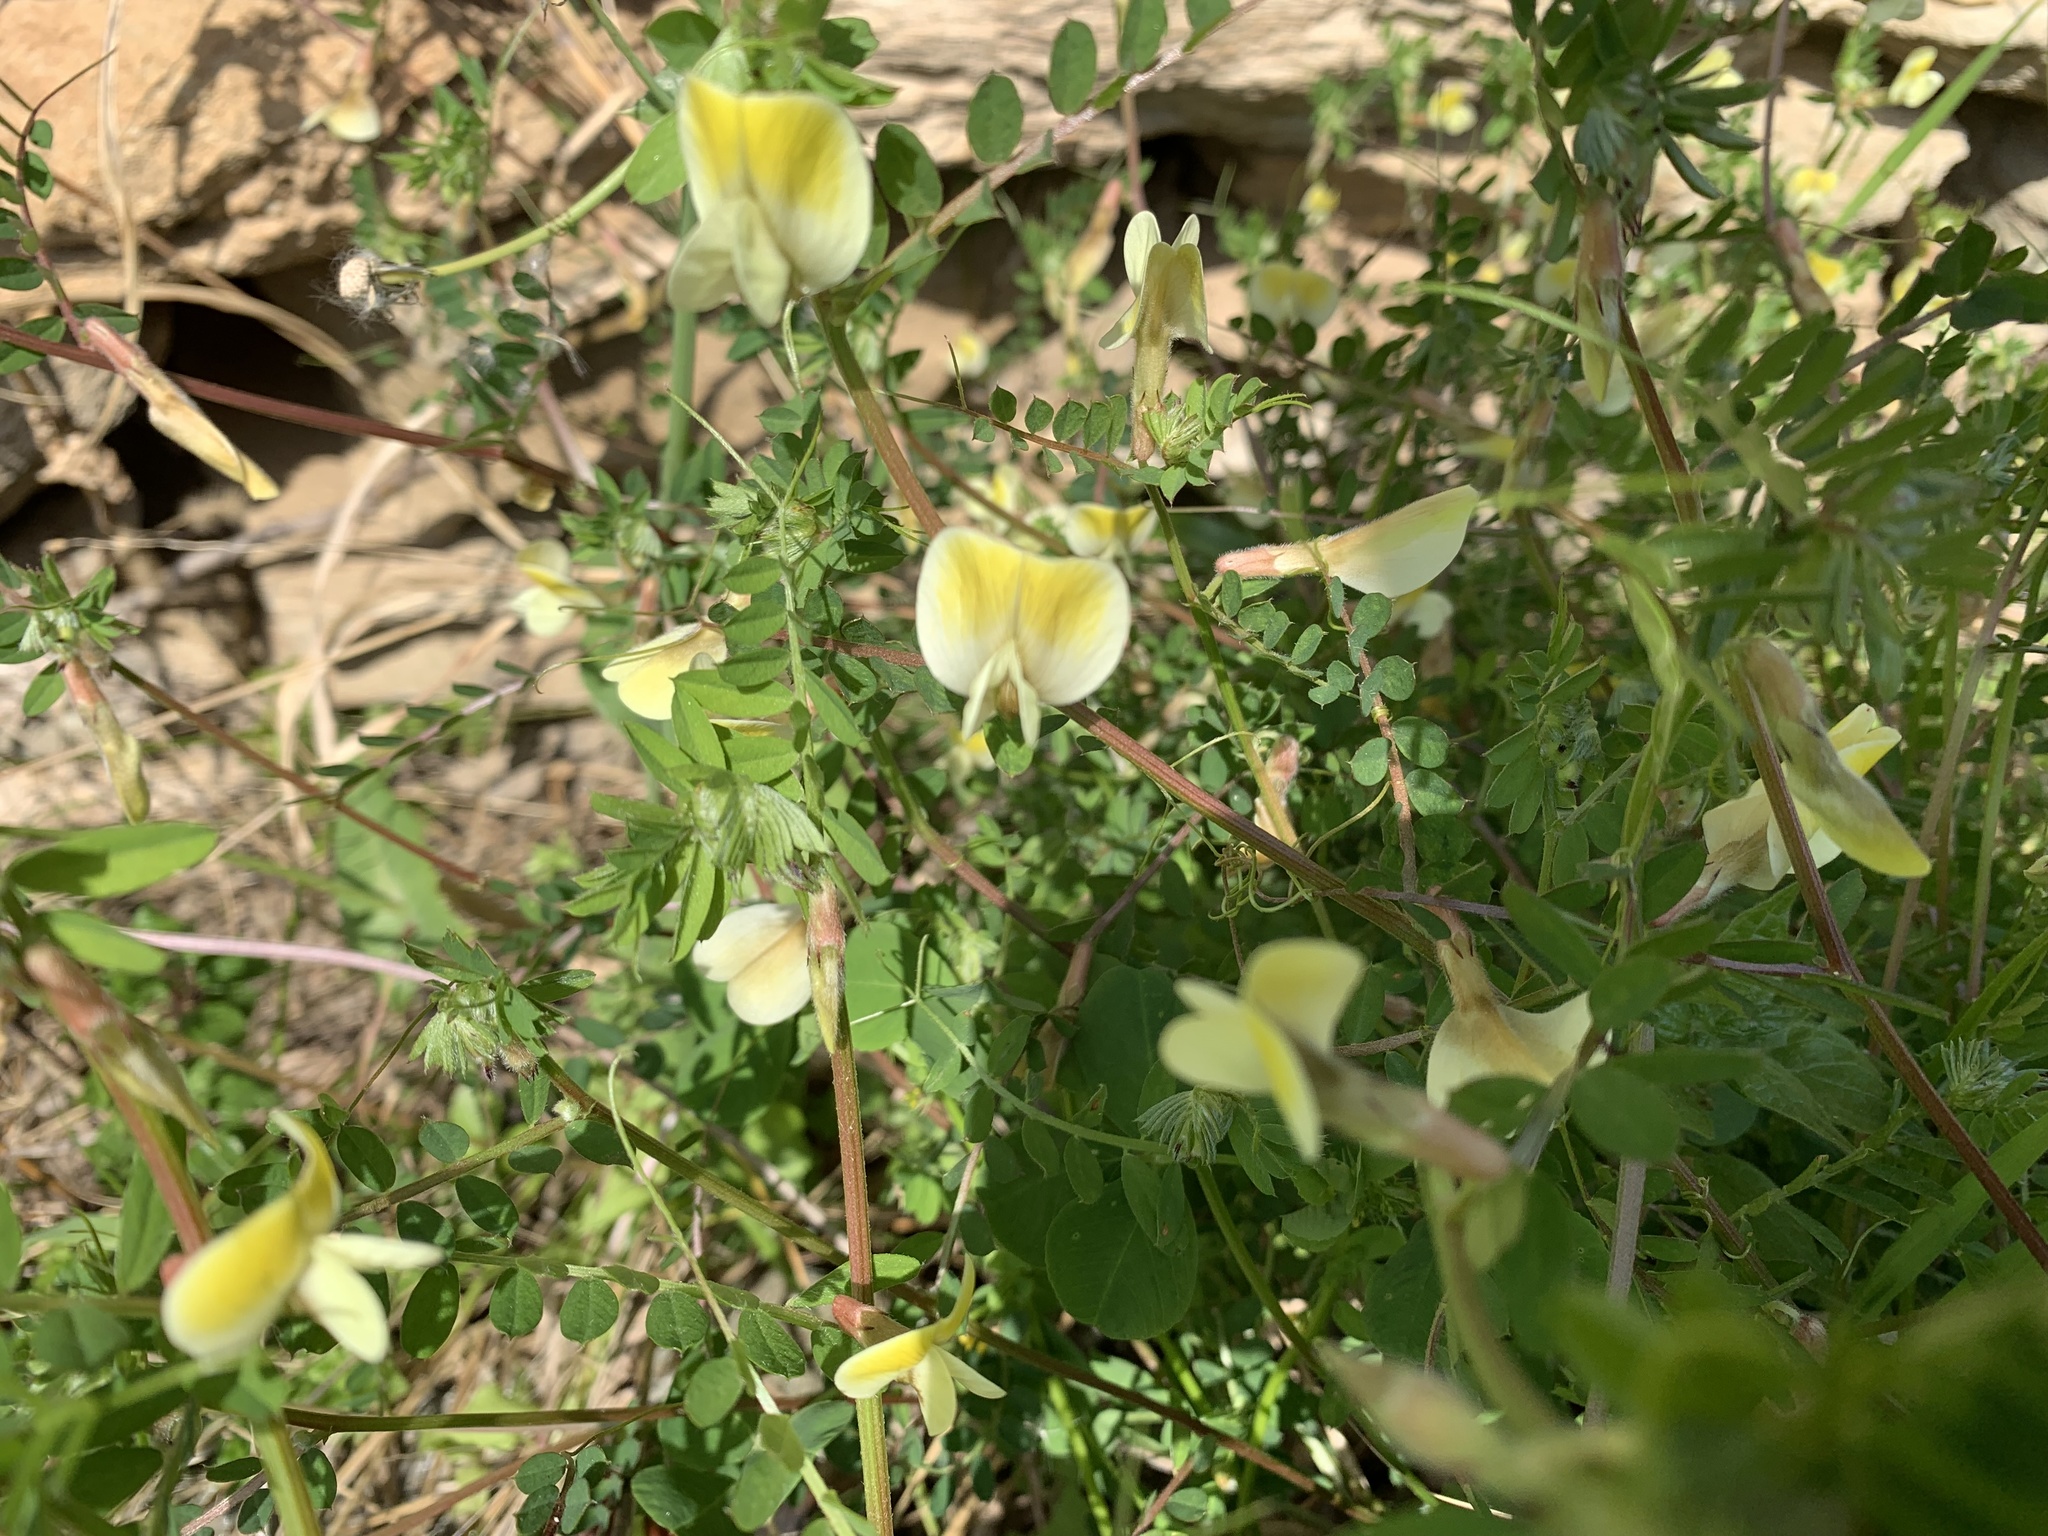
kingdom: Plantae
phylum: Tracheophyta
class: Magnoliopsida
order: Fabales
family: Fabaceae
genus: Vicia
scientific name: Vicia hybrida
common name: Hairy yellow vetch
